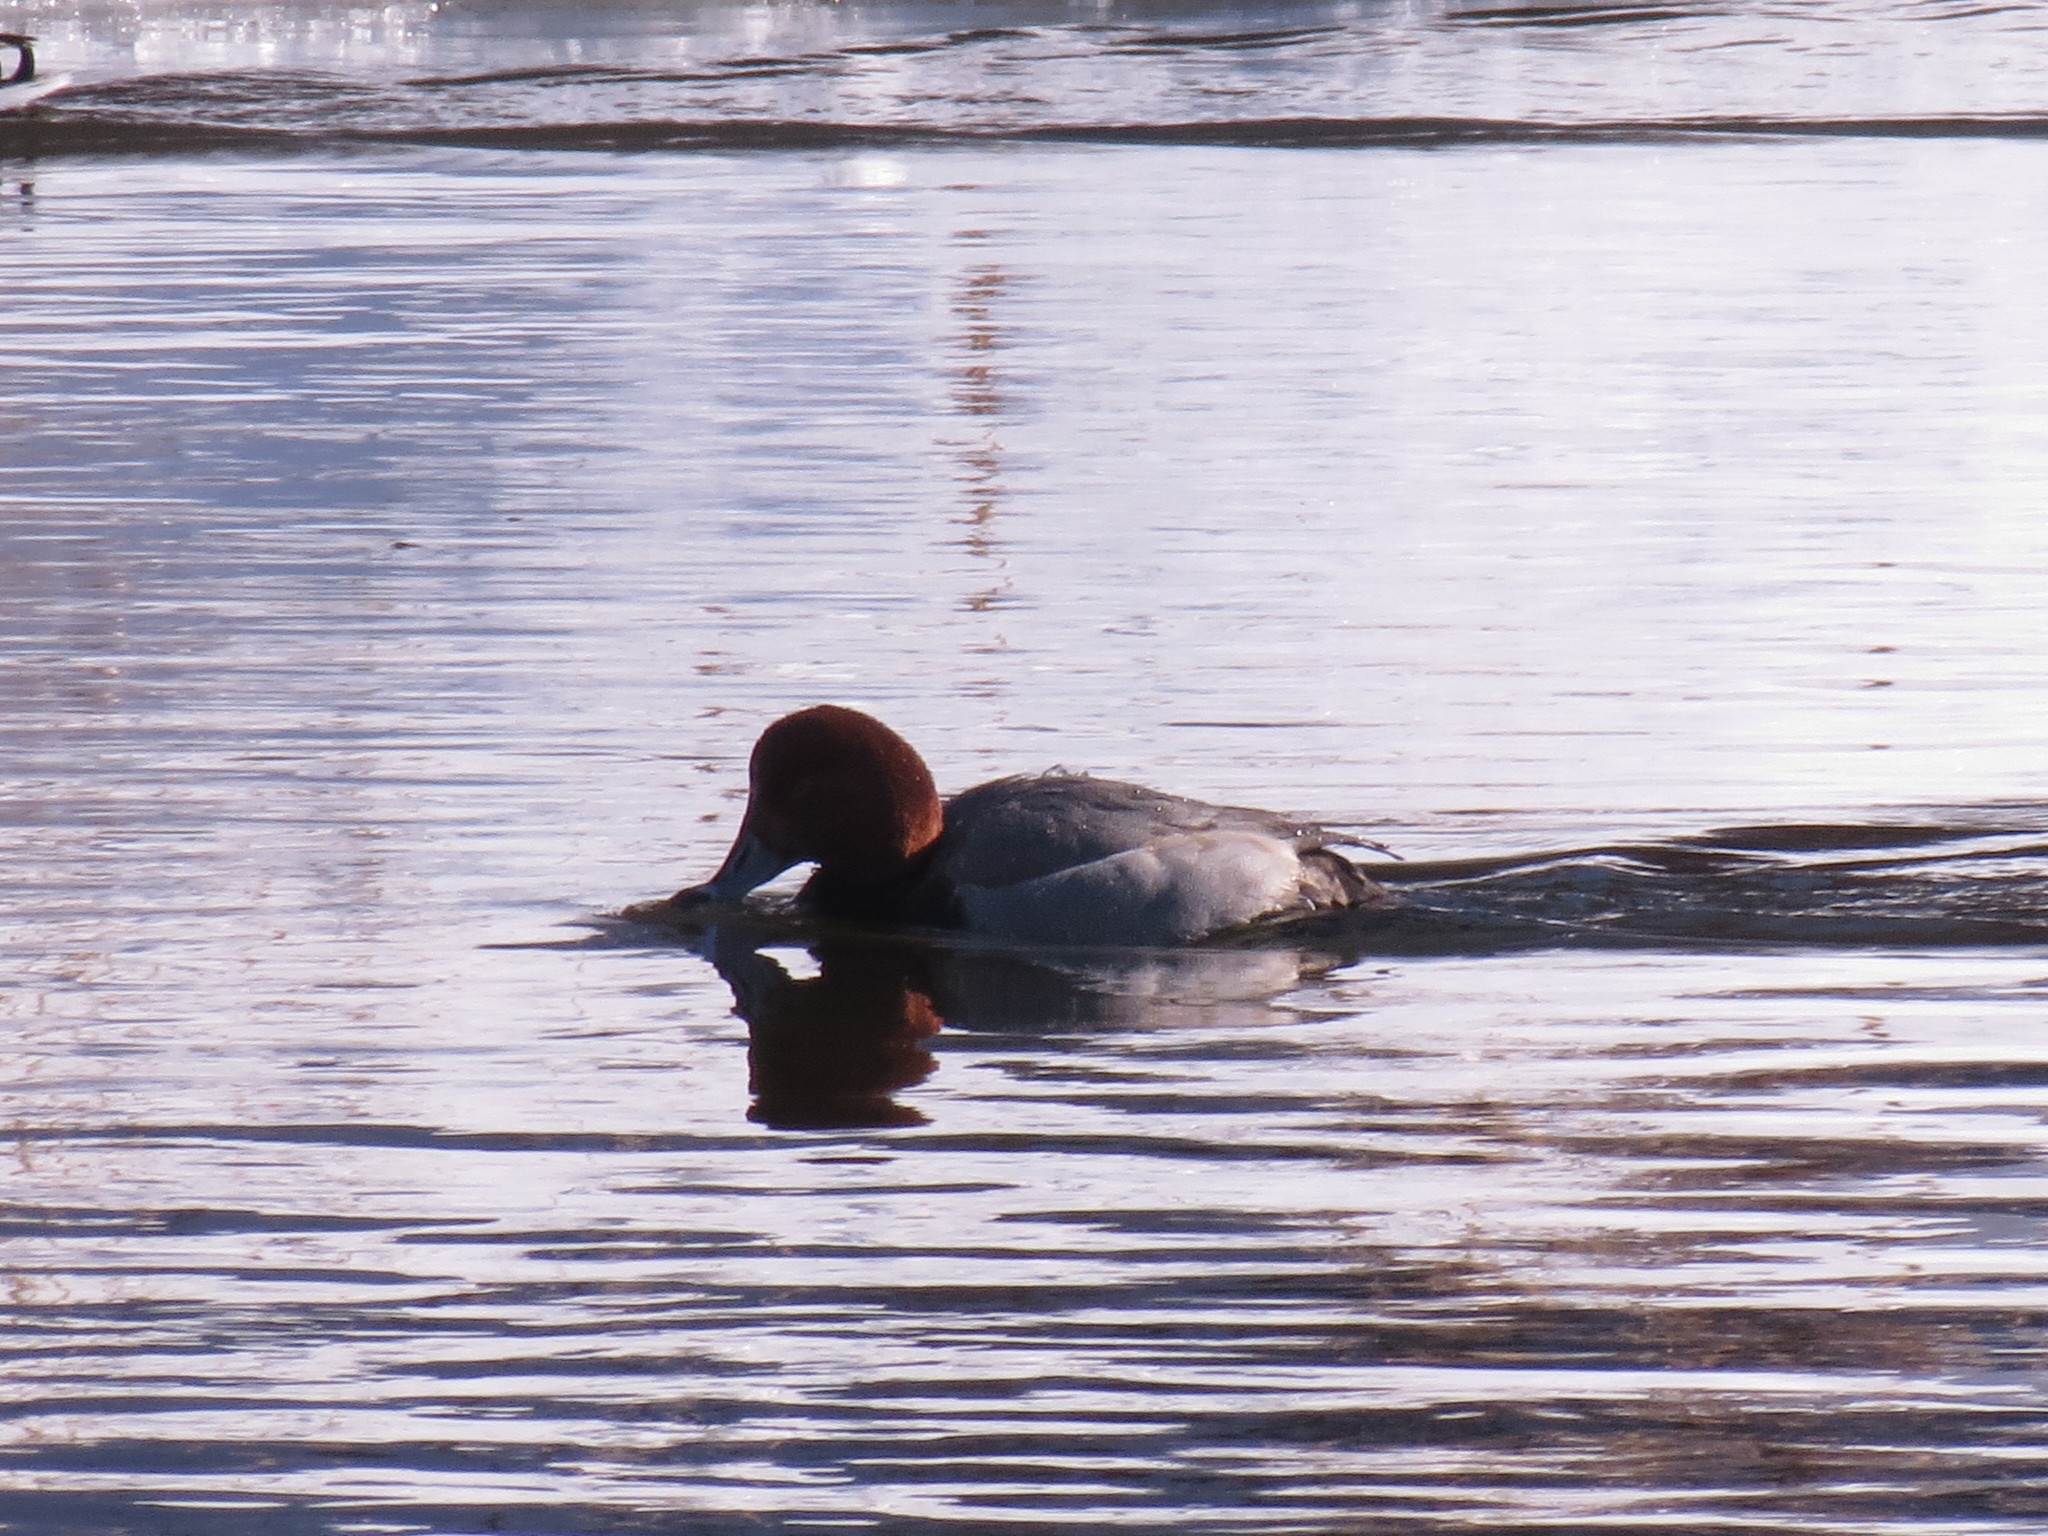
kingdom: Animalia
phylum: Chordata
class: Aves
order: Anseriformes
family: Anatidae
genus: Aythya
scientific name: Aythya americana
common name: Redhead
